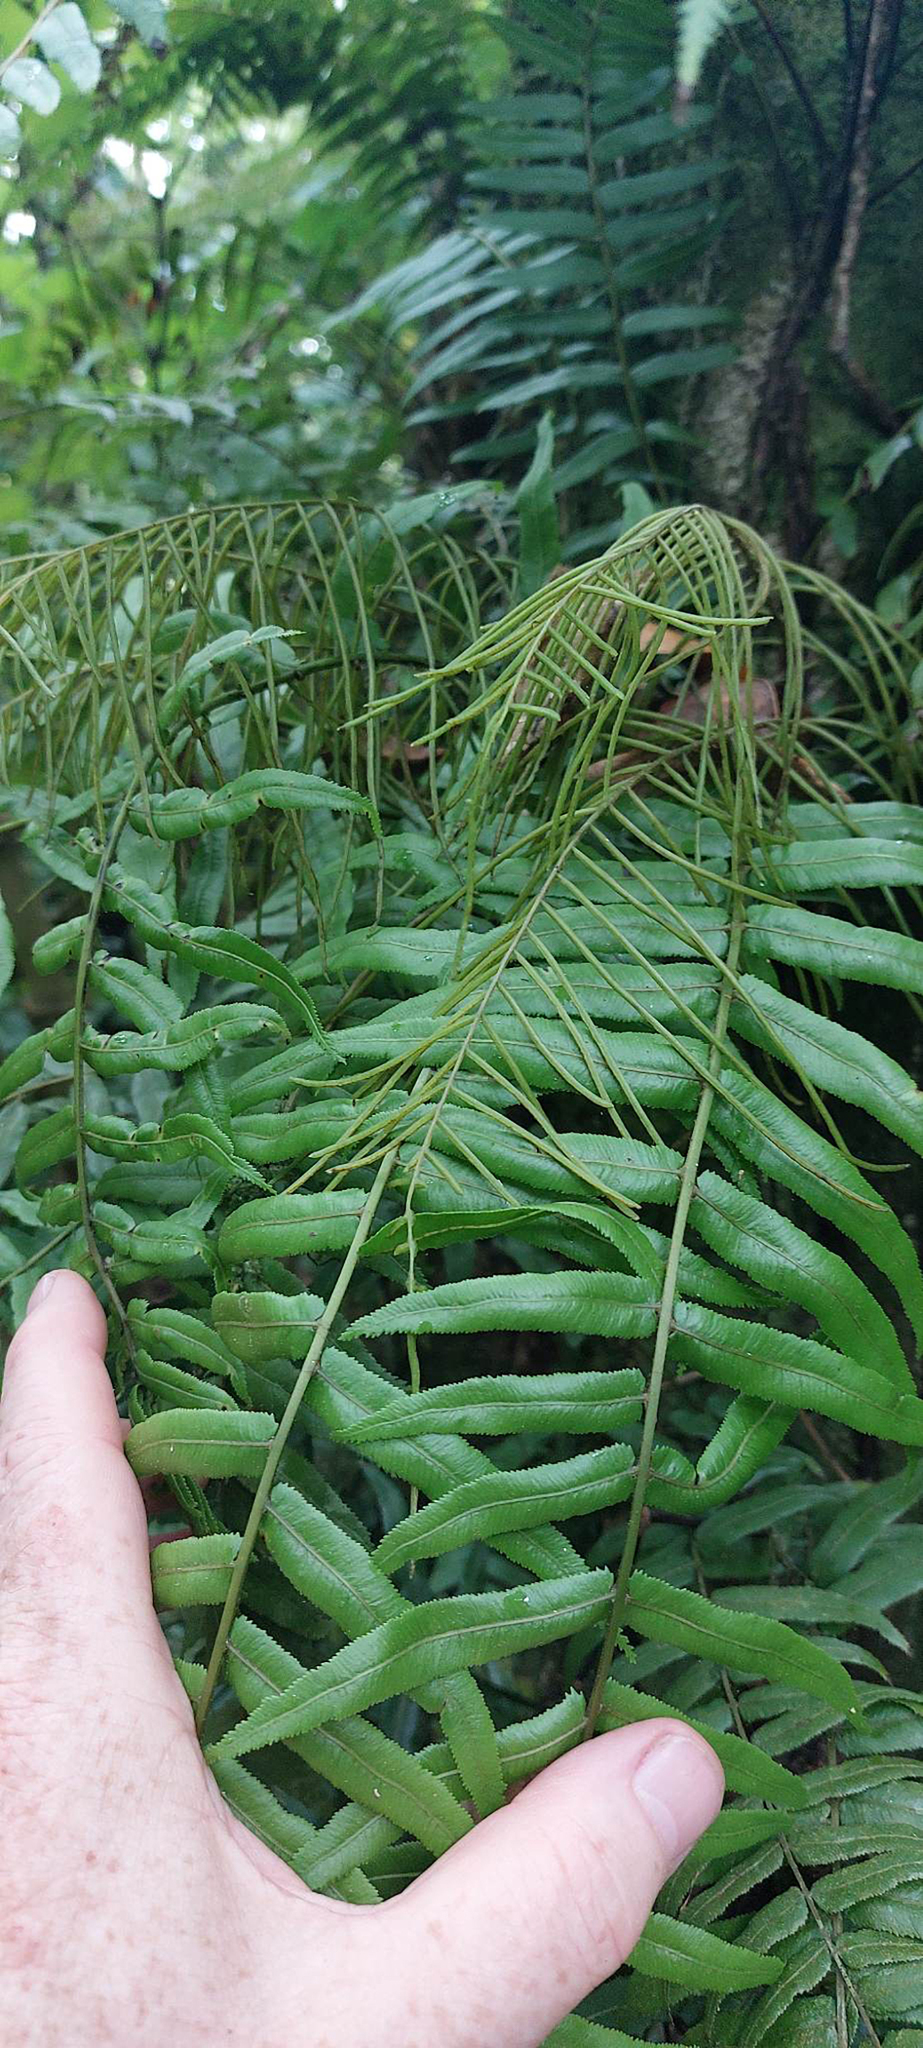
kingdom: Plantae
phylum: Tracheophyta
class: Polypodiopsida
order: Polypodiales
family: Blechnaceae
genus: Icarus
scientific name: Icarus filiformis
